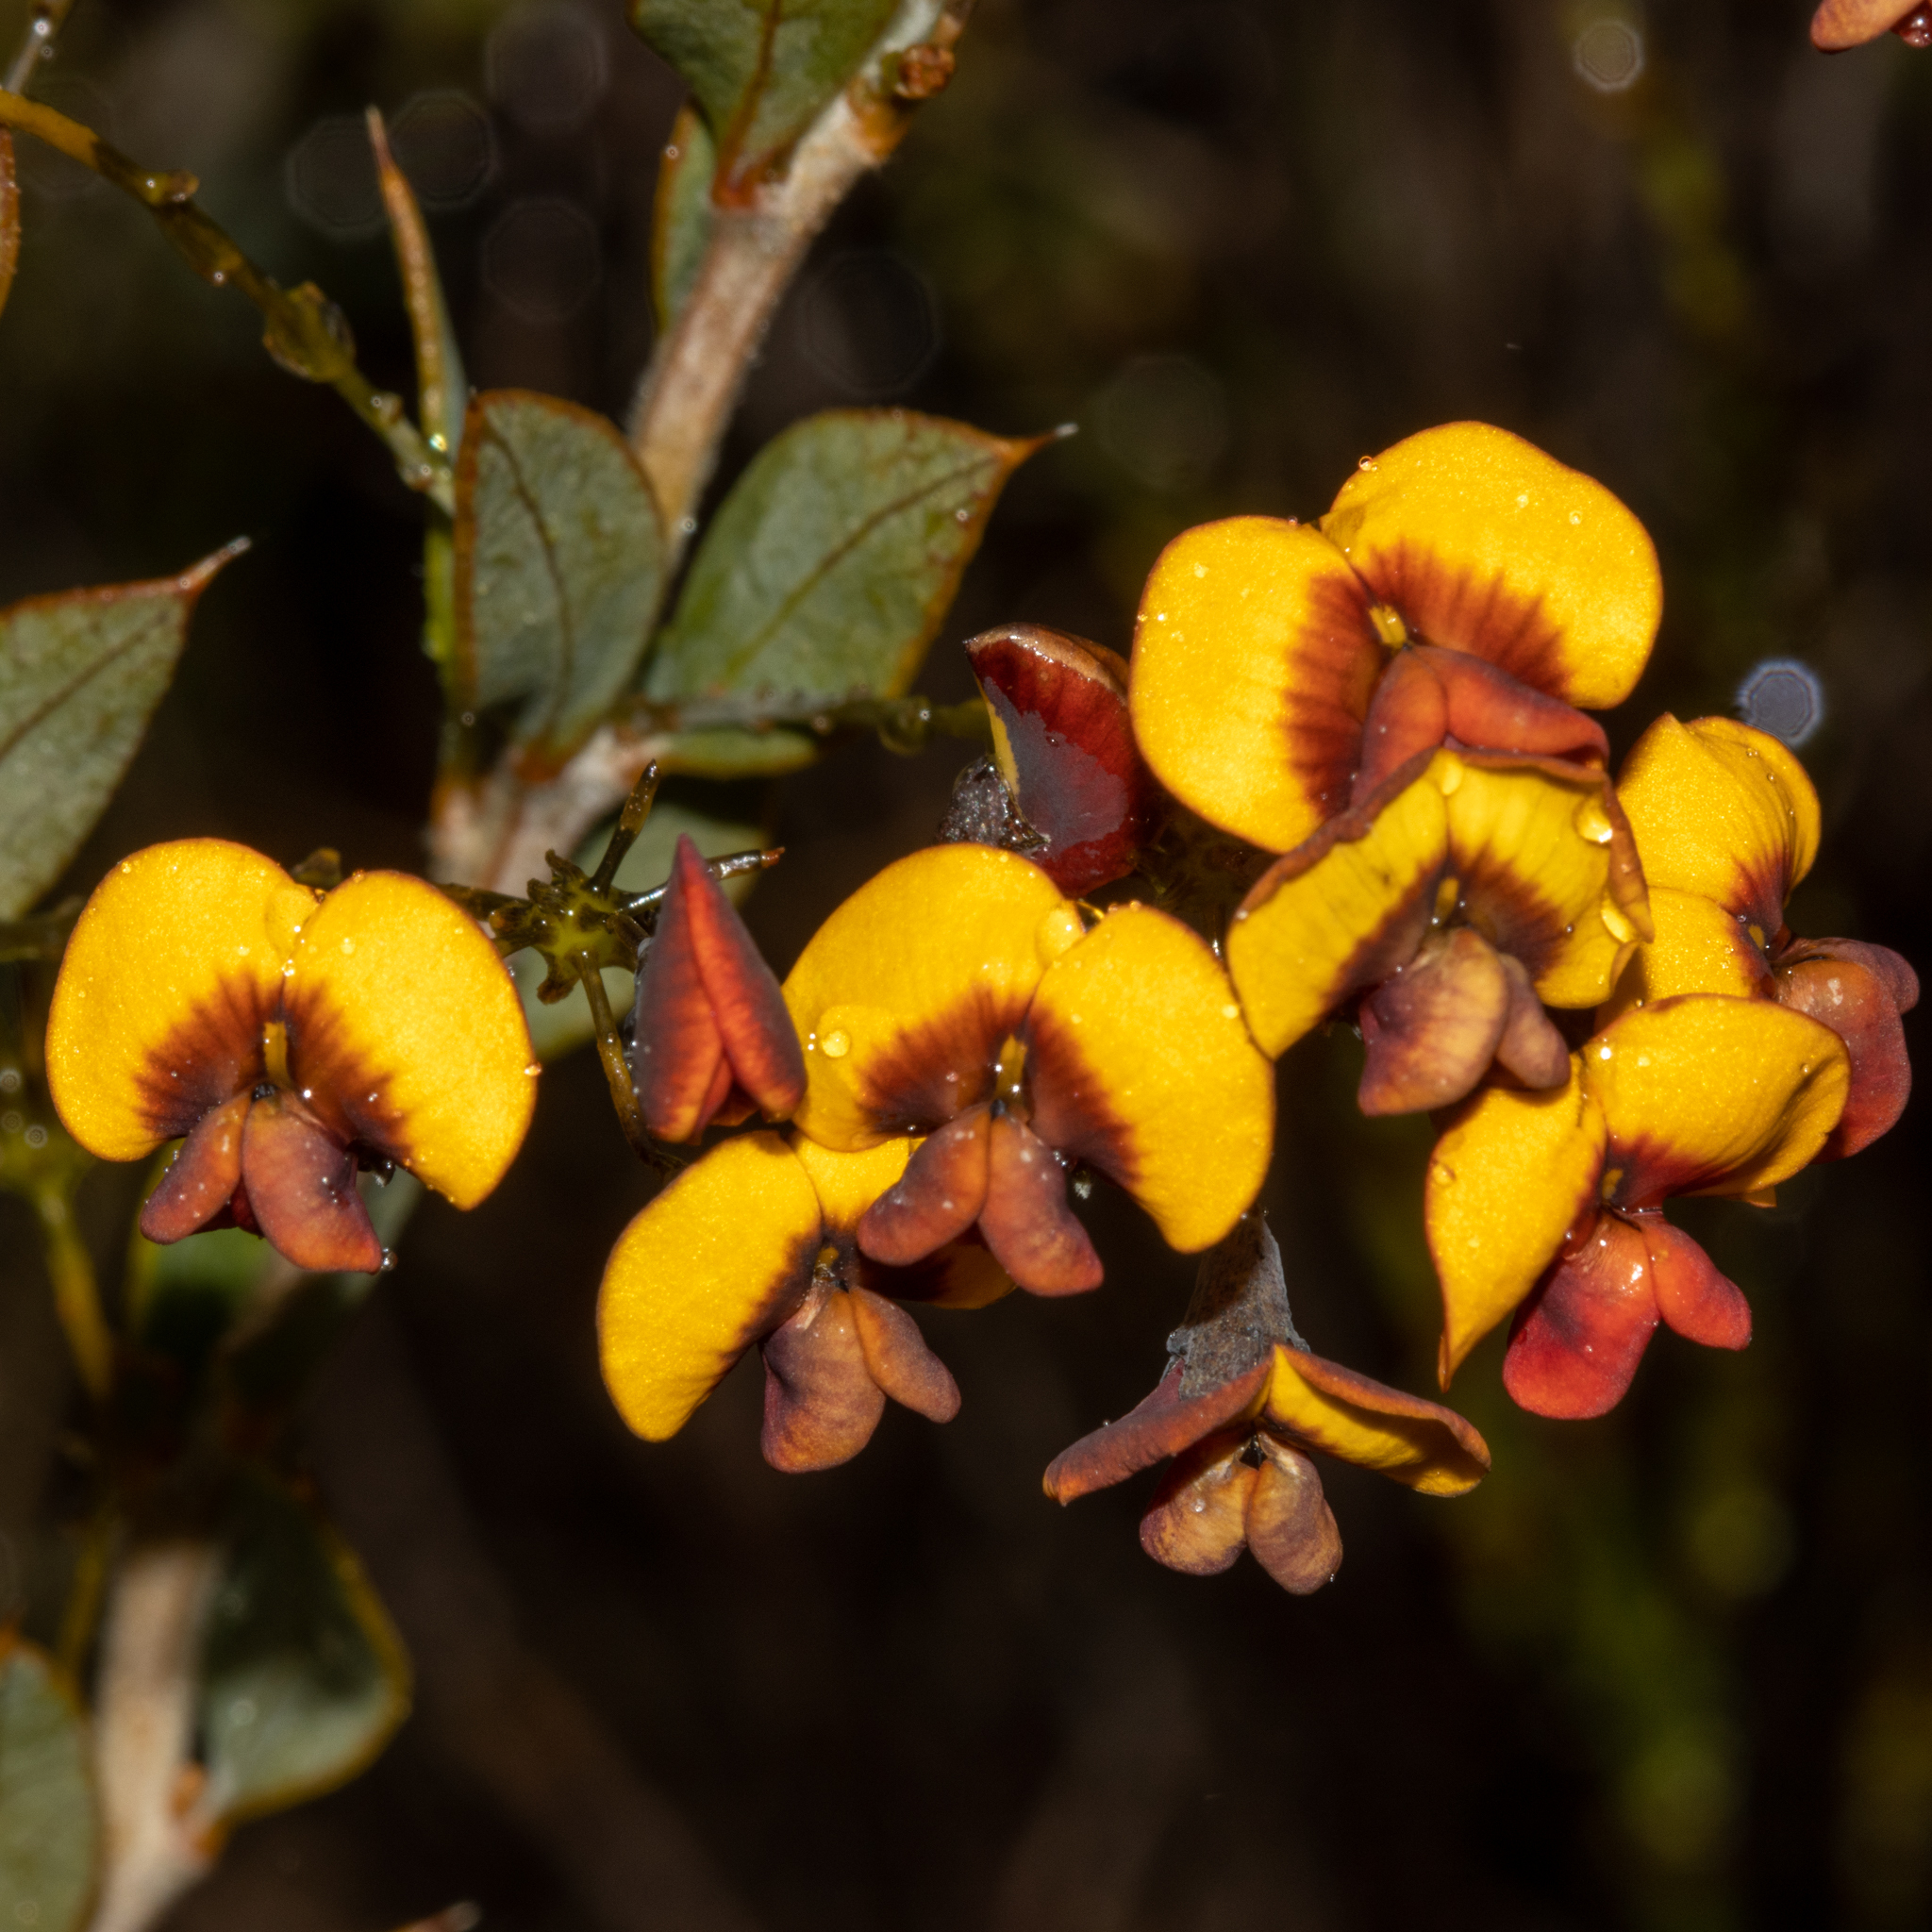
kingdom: Plantae
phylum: Tracheophyta
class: Magnoliopsida
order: Fabales
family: Fabaceae
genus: Daviesia
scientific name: Daviesia nudiflora
